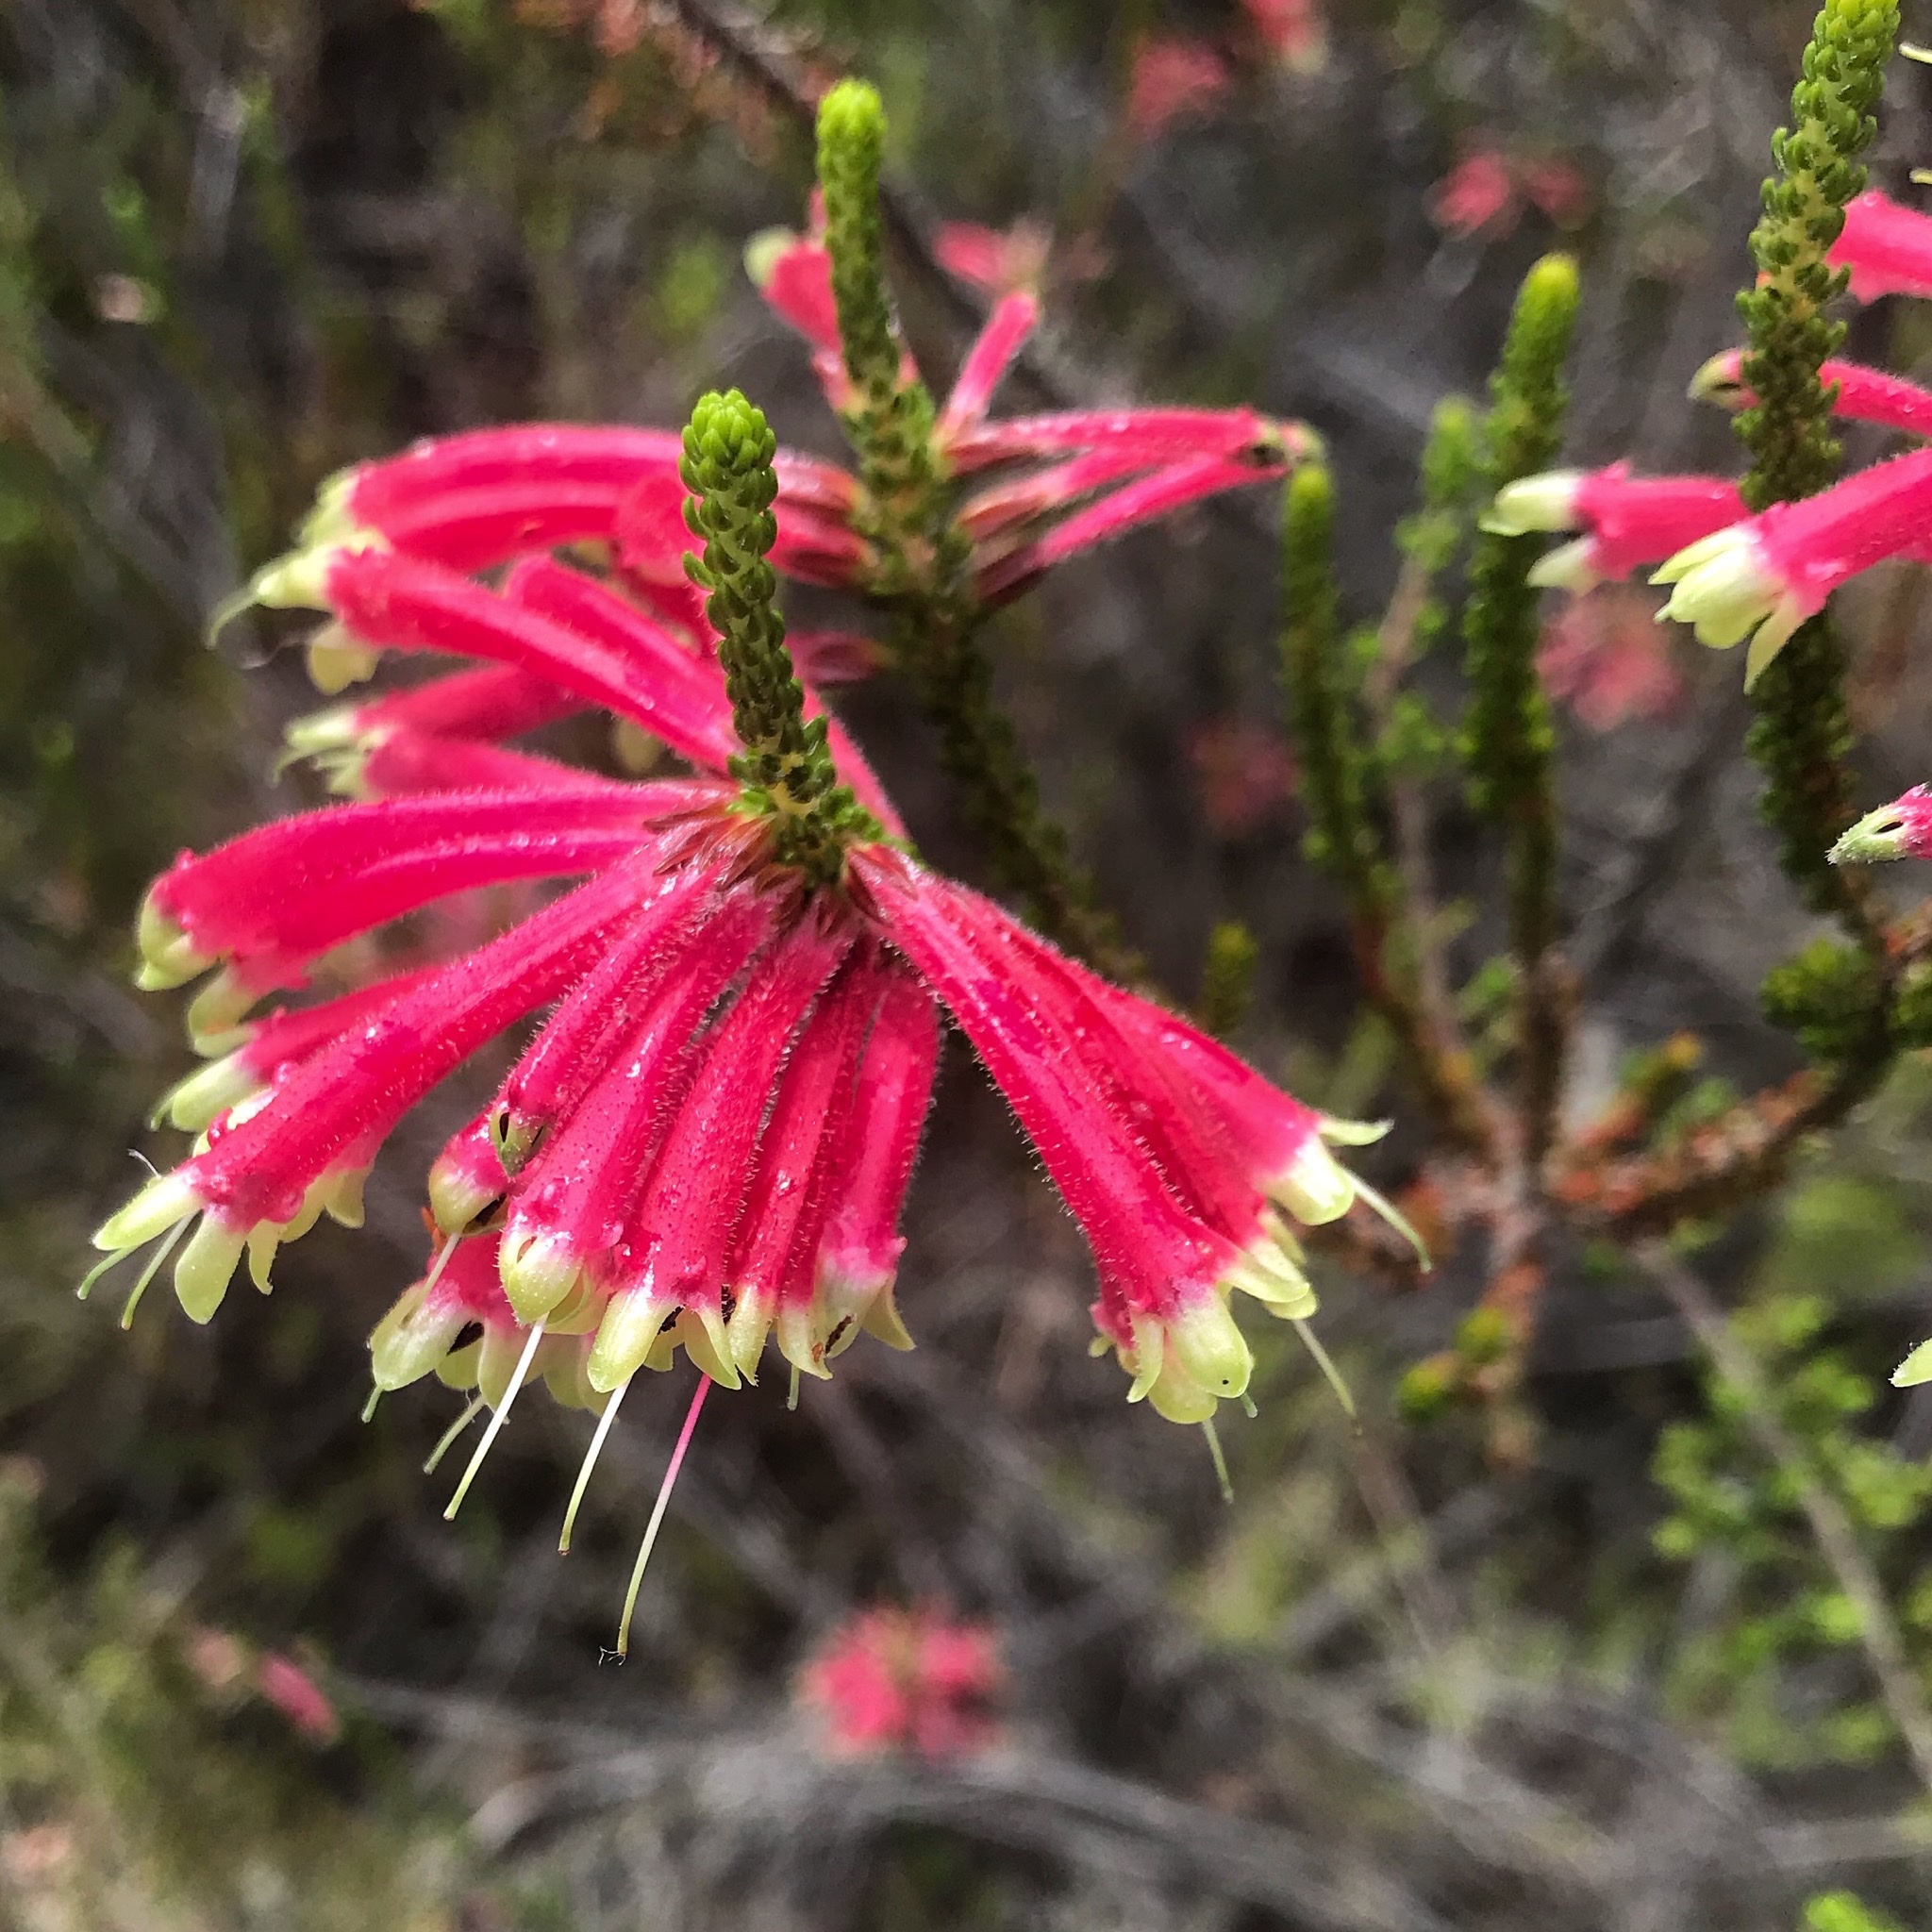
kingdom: Plantae
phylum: Tracheophyta
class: Magnoliopsida
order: Ericales
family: Ericaceae
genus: Erica
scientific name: Erica densifolia
